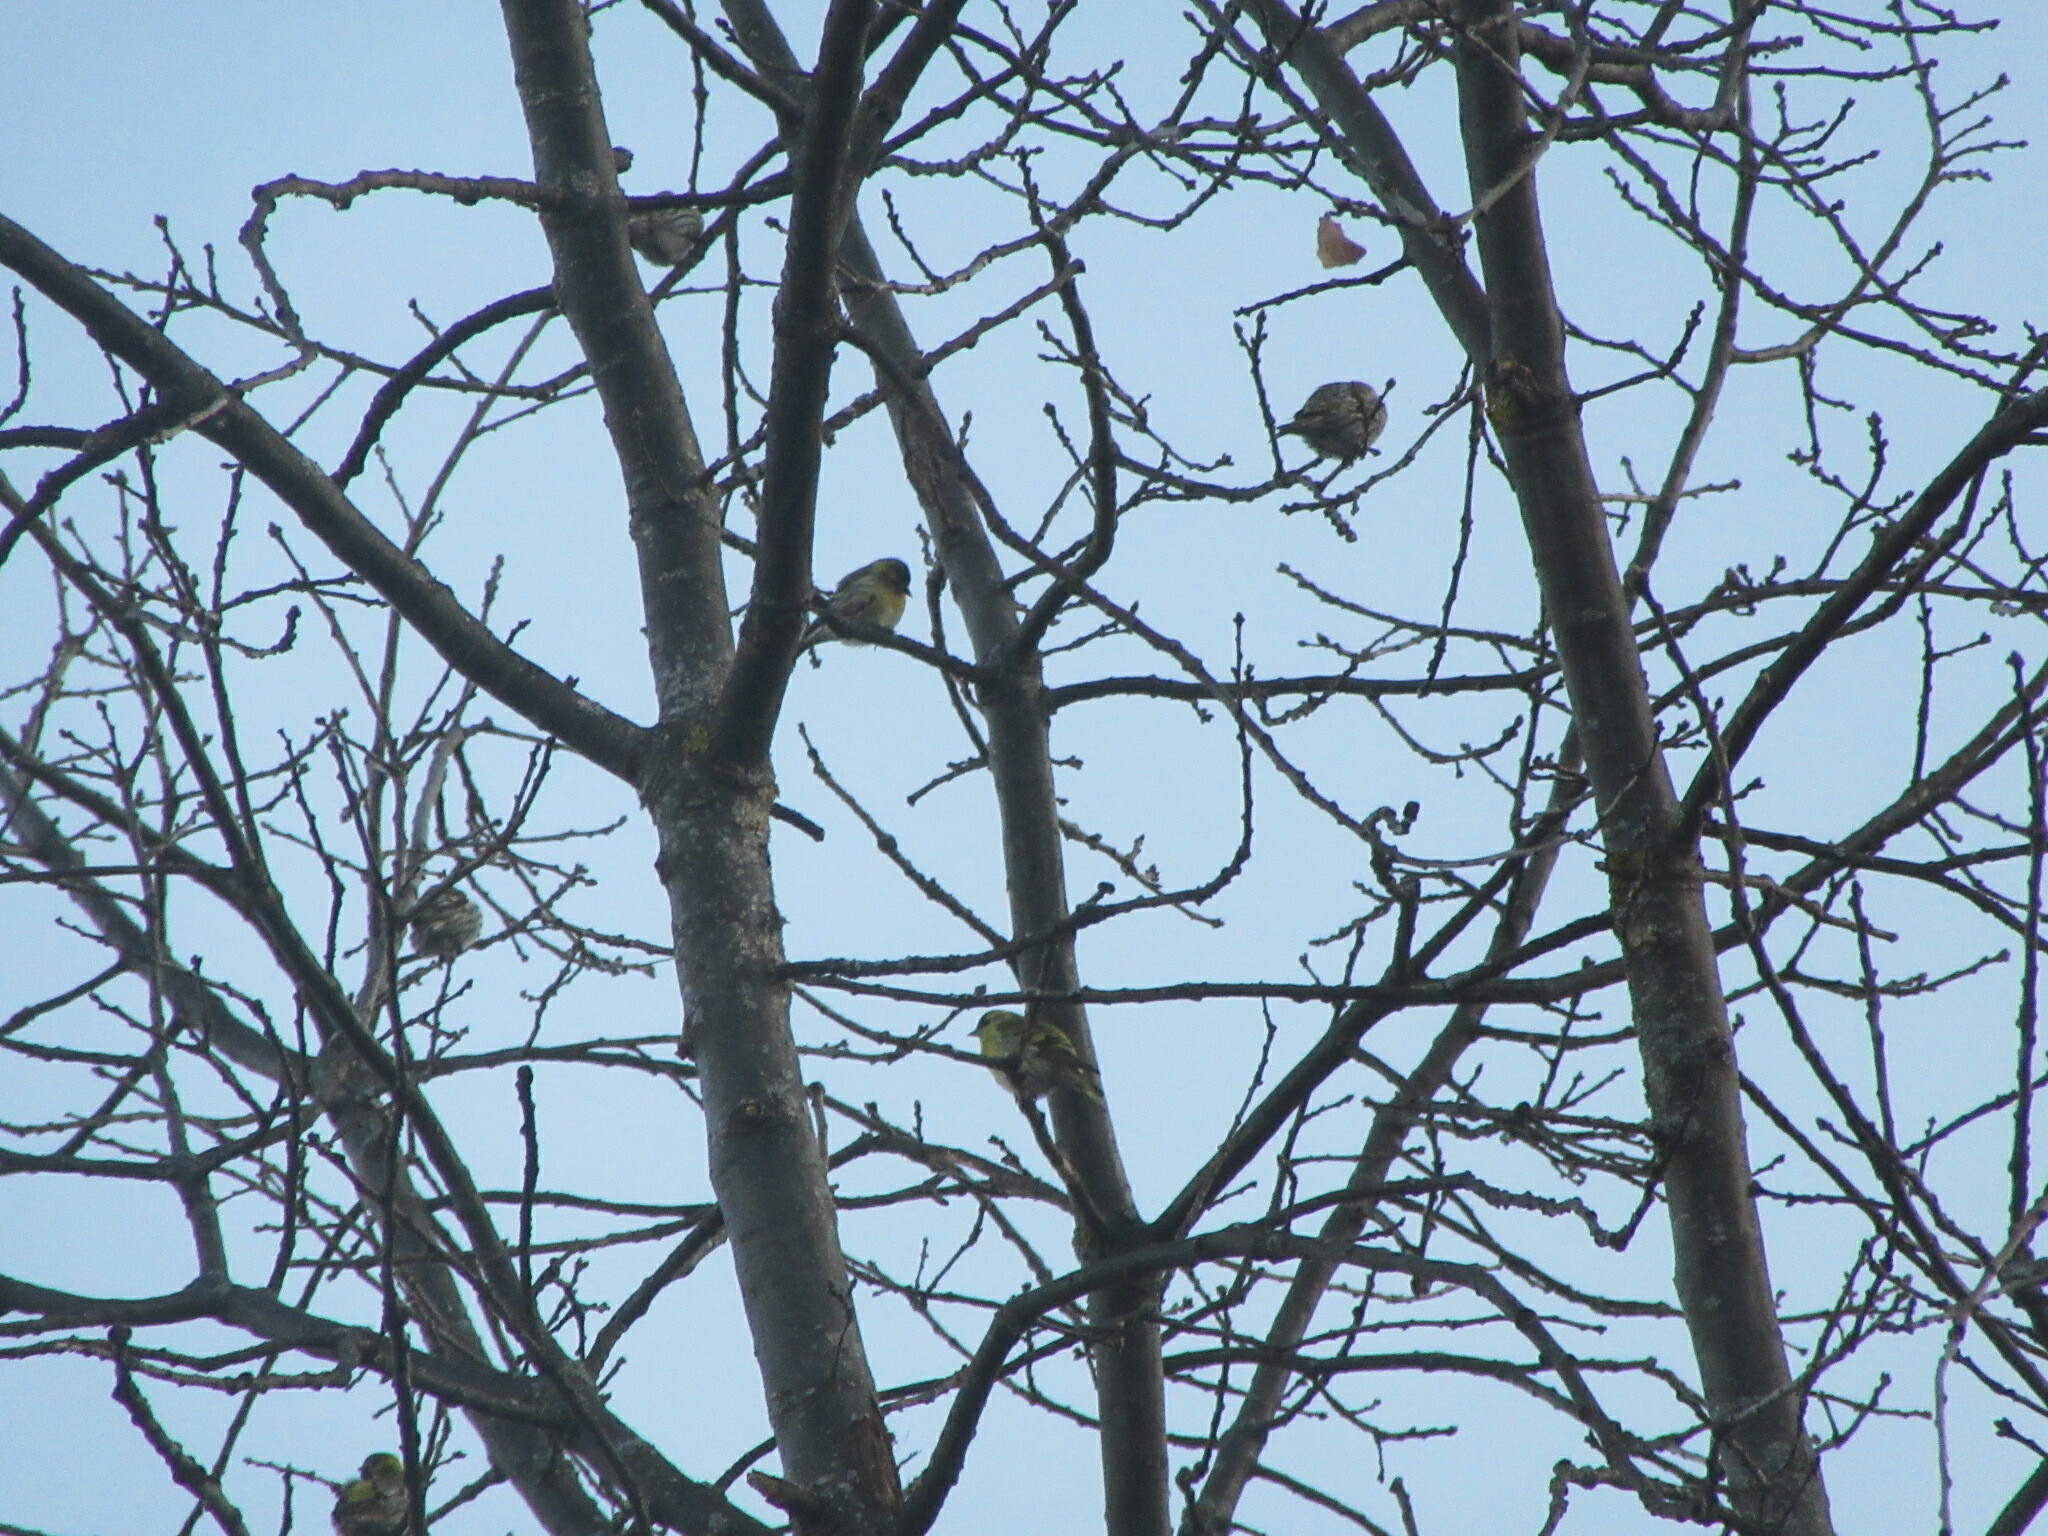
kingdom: Animalia
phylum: Chordata
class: Aves
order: Passeriformes
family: Fringillidae
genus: Spinus
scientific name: Spinus spinus
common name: Eurasian siskin
